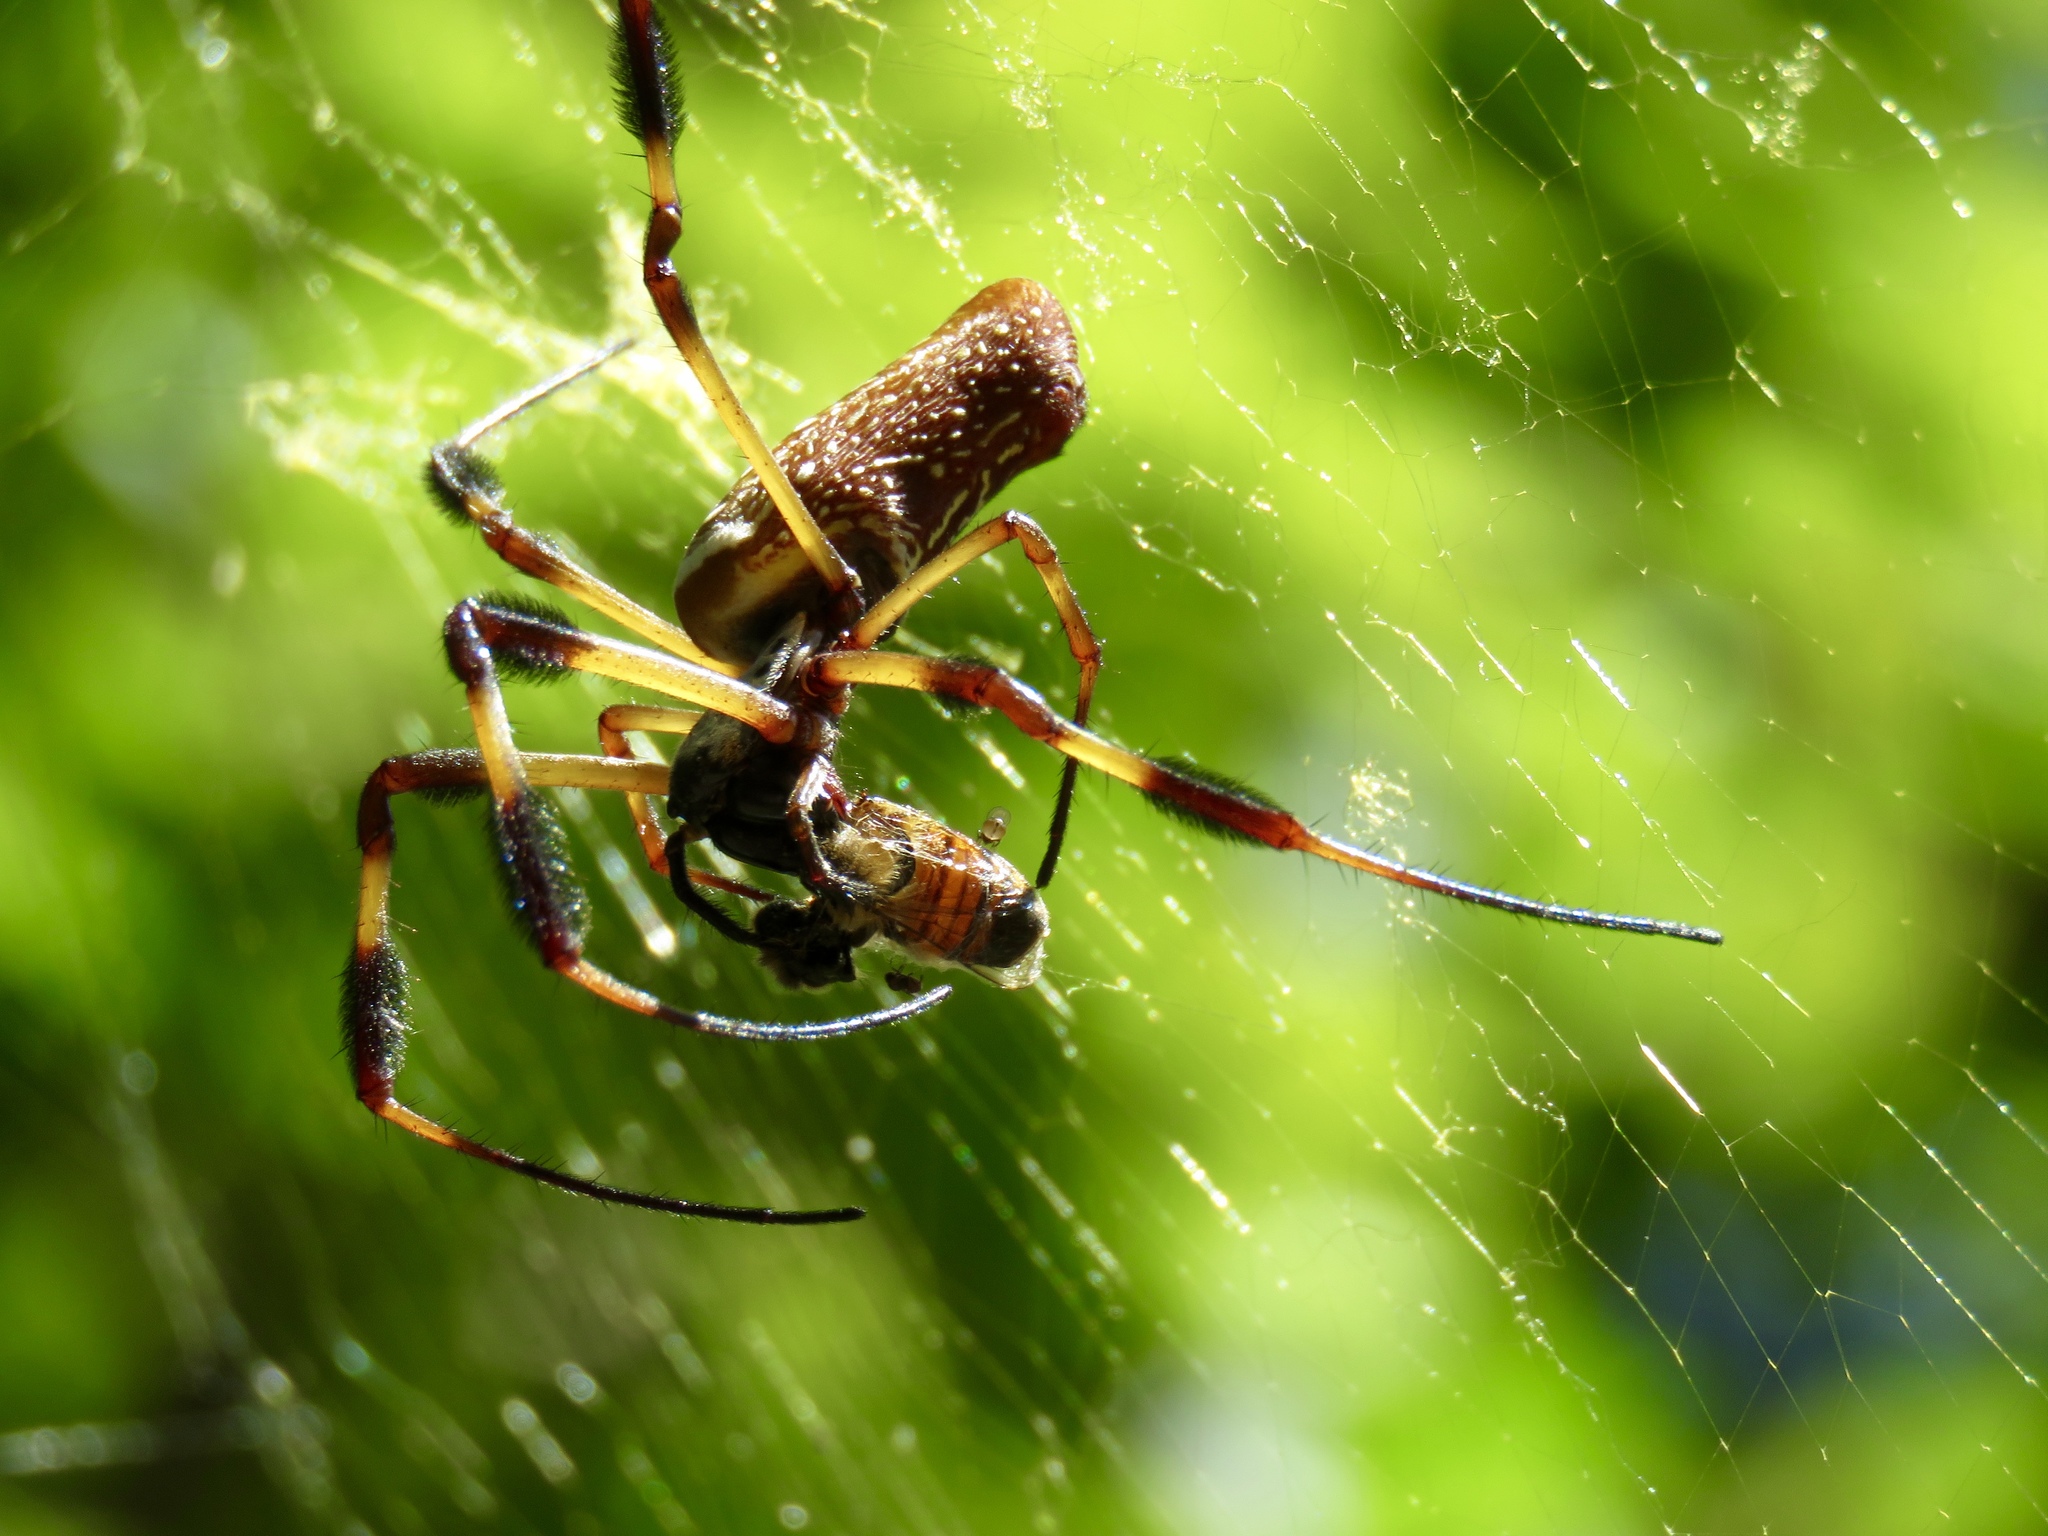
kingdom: Animalia
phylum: Arthropoda
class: Arachnida
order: Araneae
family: Araneidae
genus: Trichonephila
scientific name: Trichonephila clavipes
